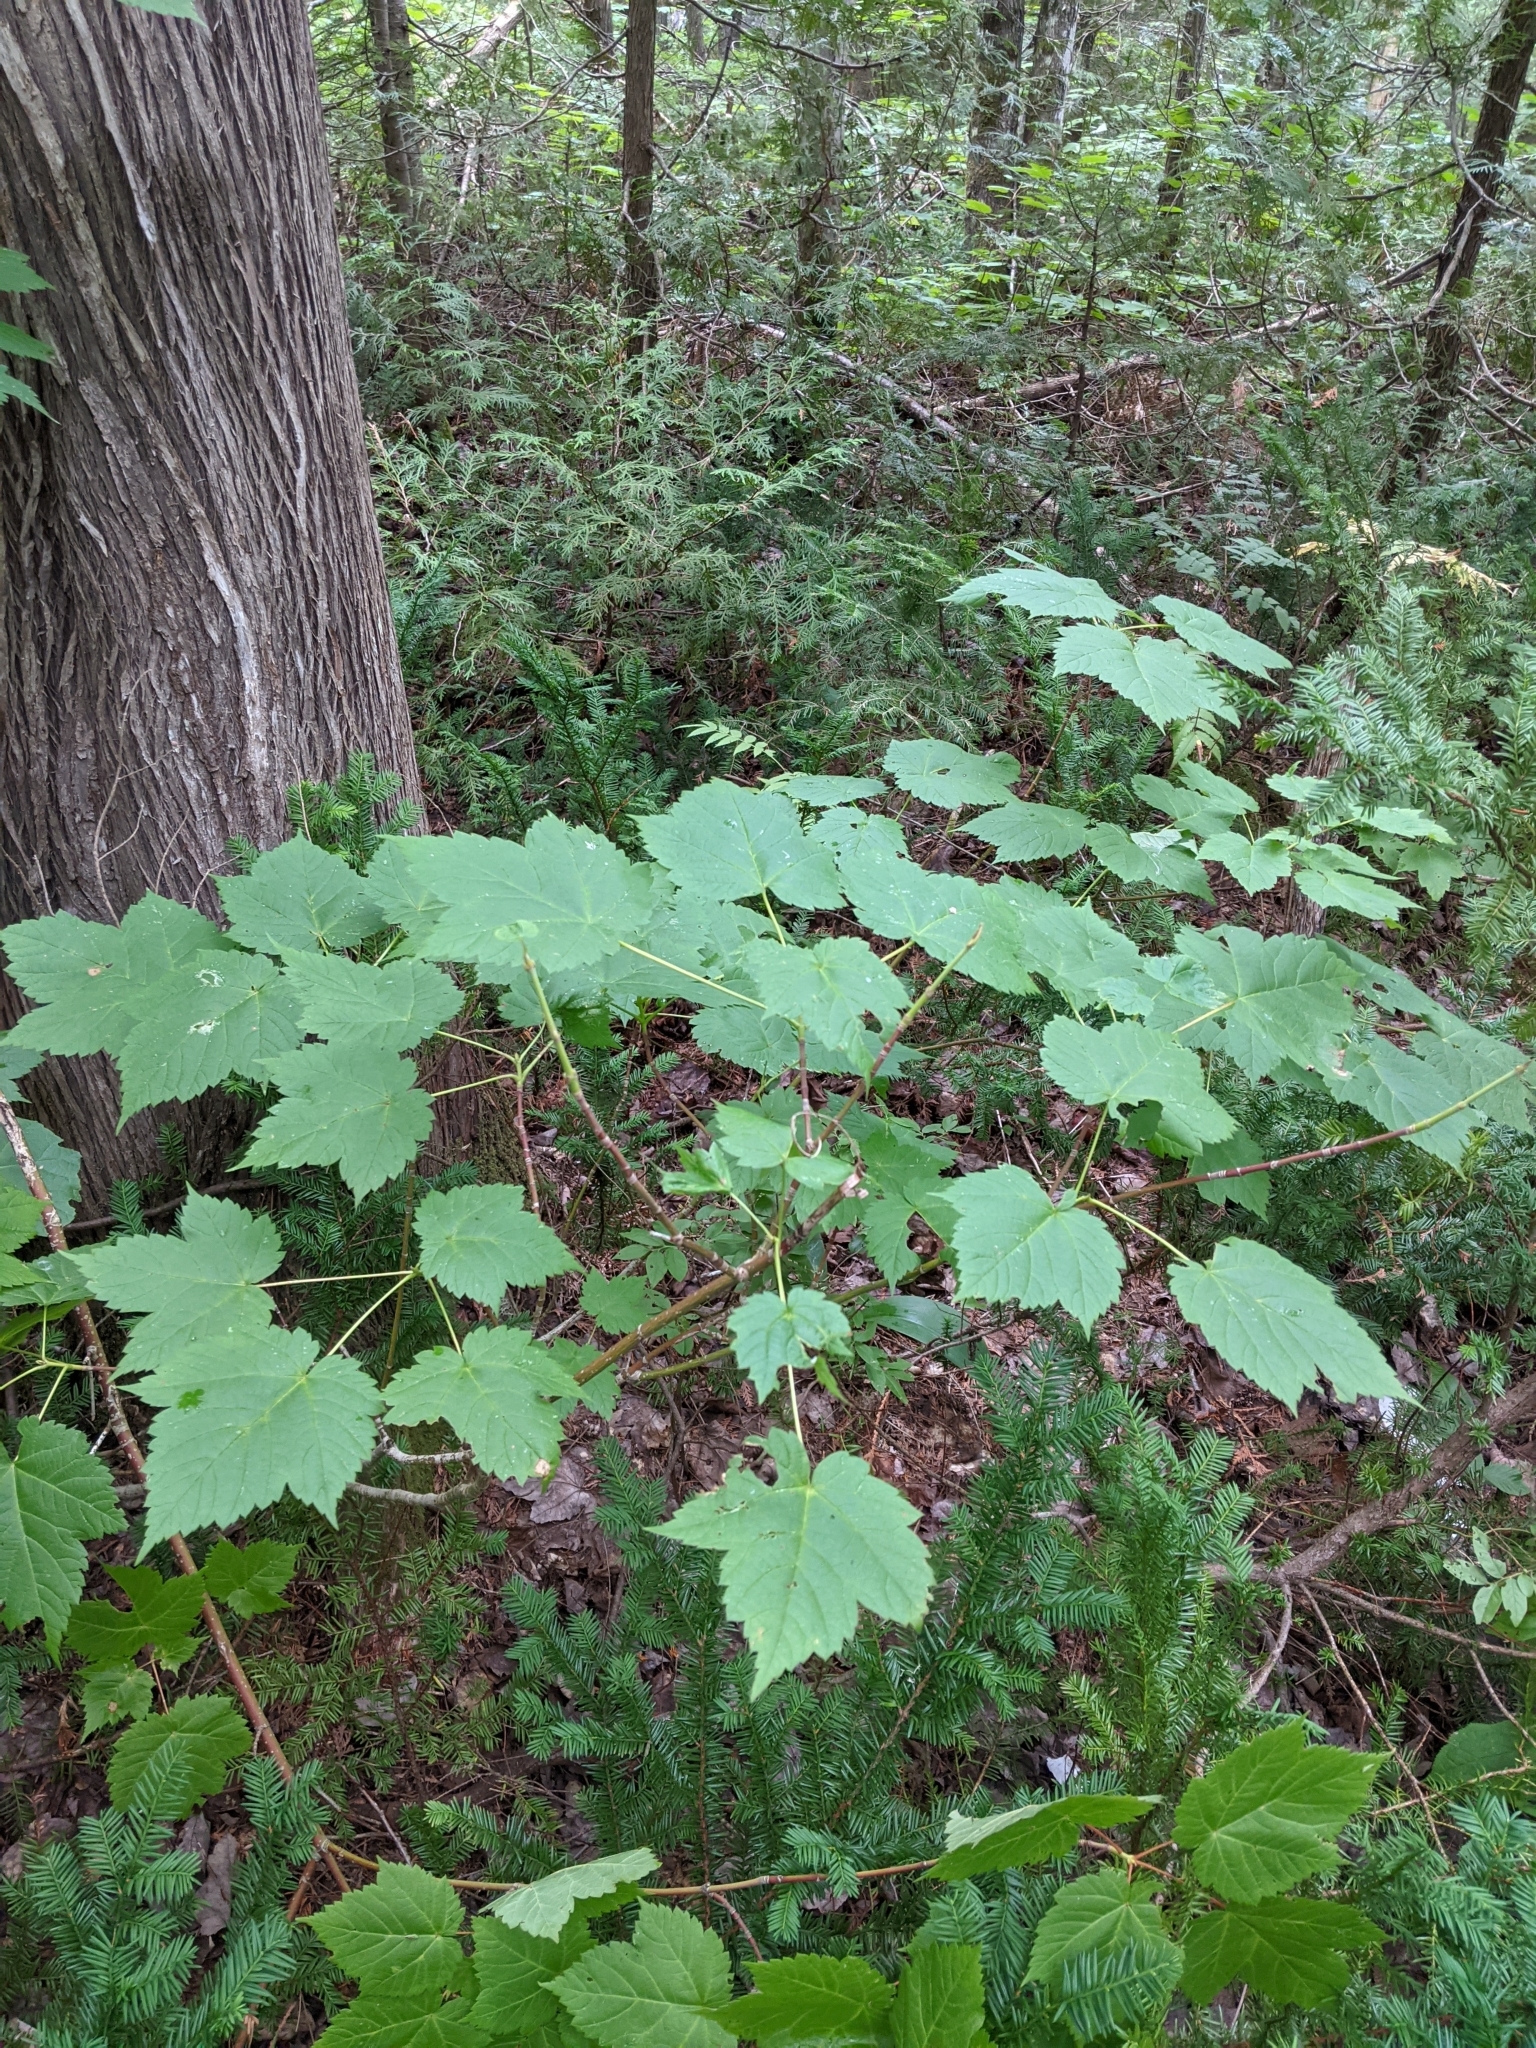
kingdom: Plantae
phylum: Tracheophyta
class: Magnoliopsida
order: Sapindales
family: Sapindaceae
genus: Acer
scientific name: Acer spicatum
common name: Mountain maple
